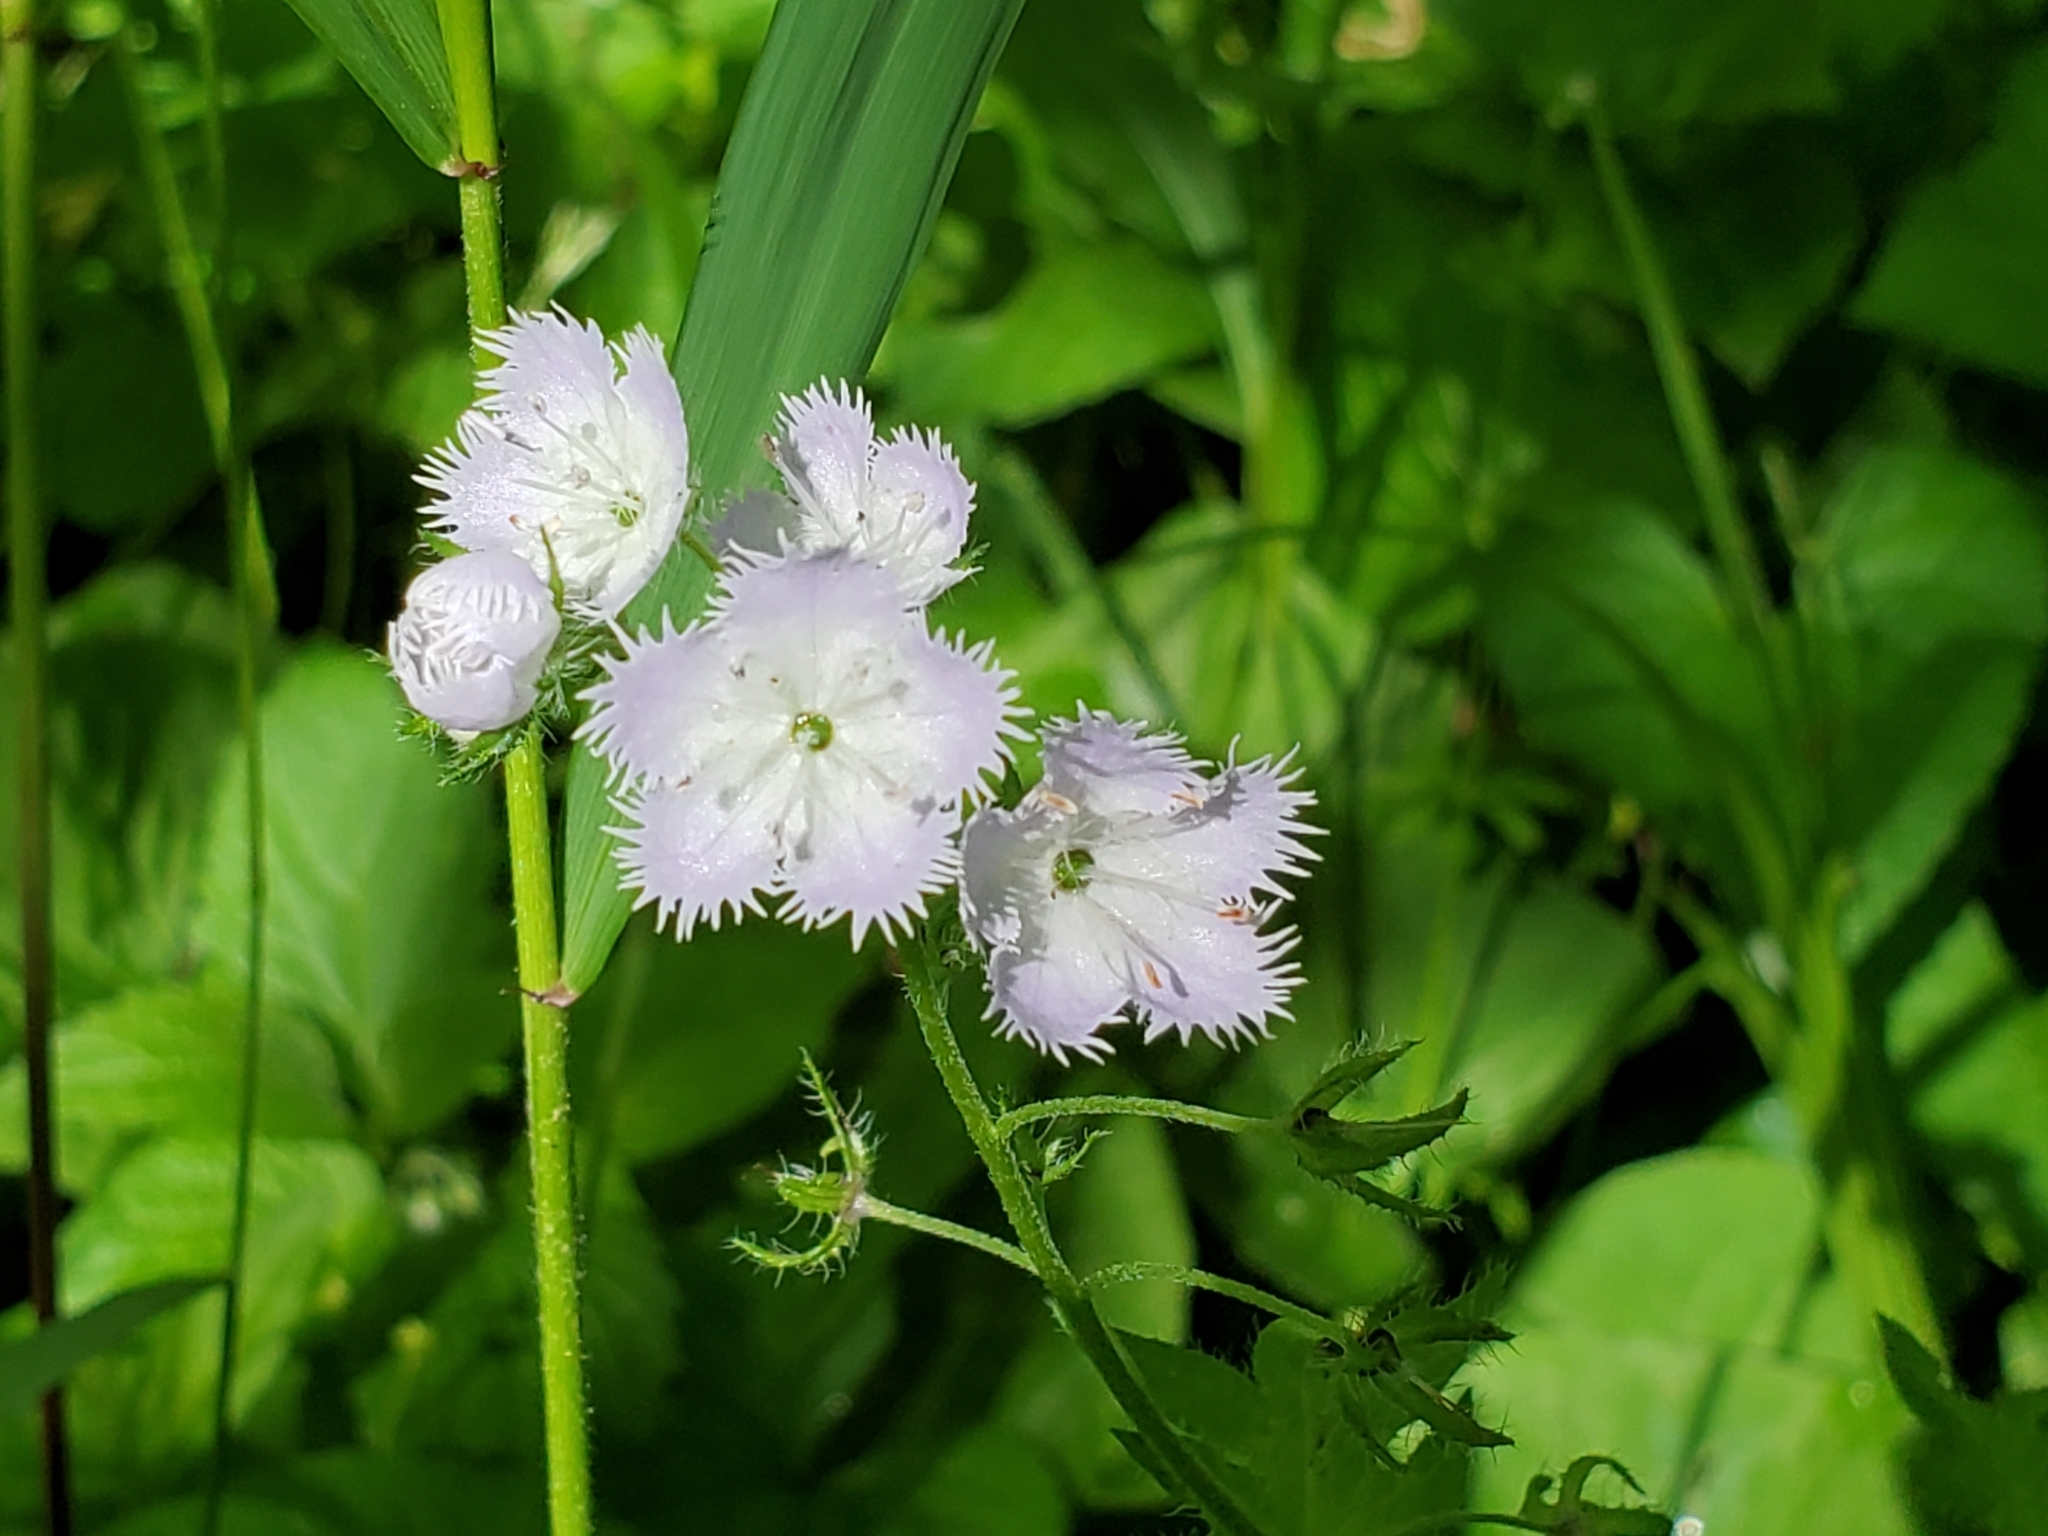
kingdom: Plantae
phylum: Tracheophyta
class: Magnoliopsida
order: Boraginales
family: Hydrophyllaceae
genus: Phacelia
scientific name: Phacelia purshii
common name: Miami-mist
